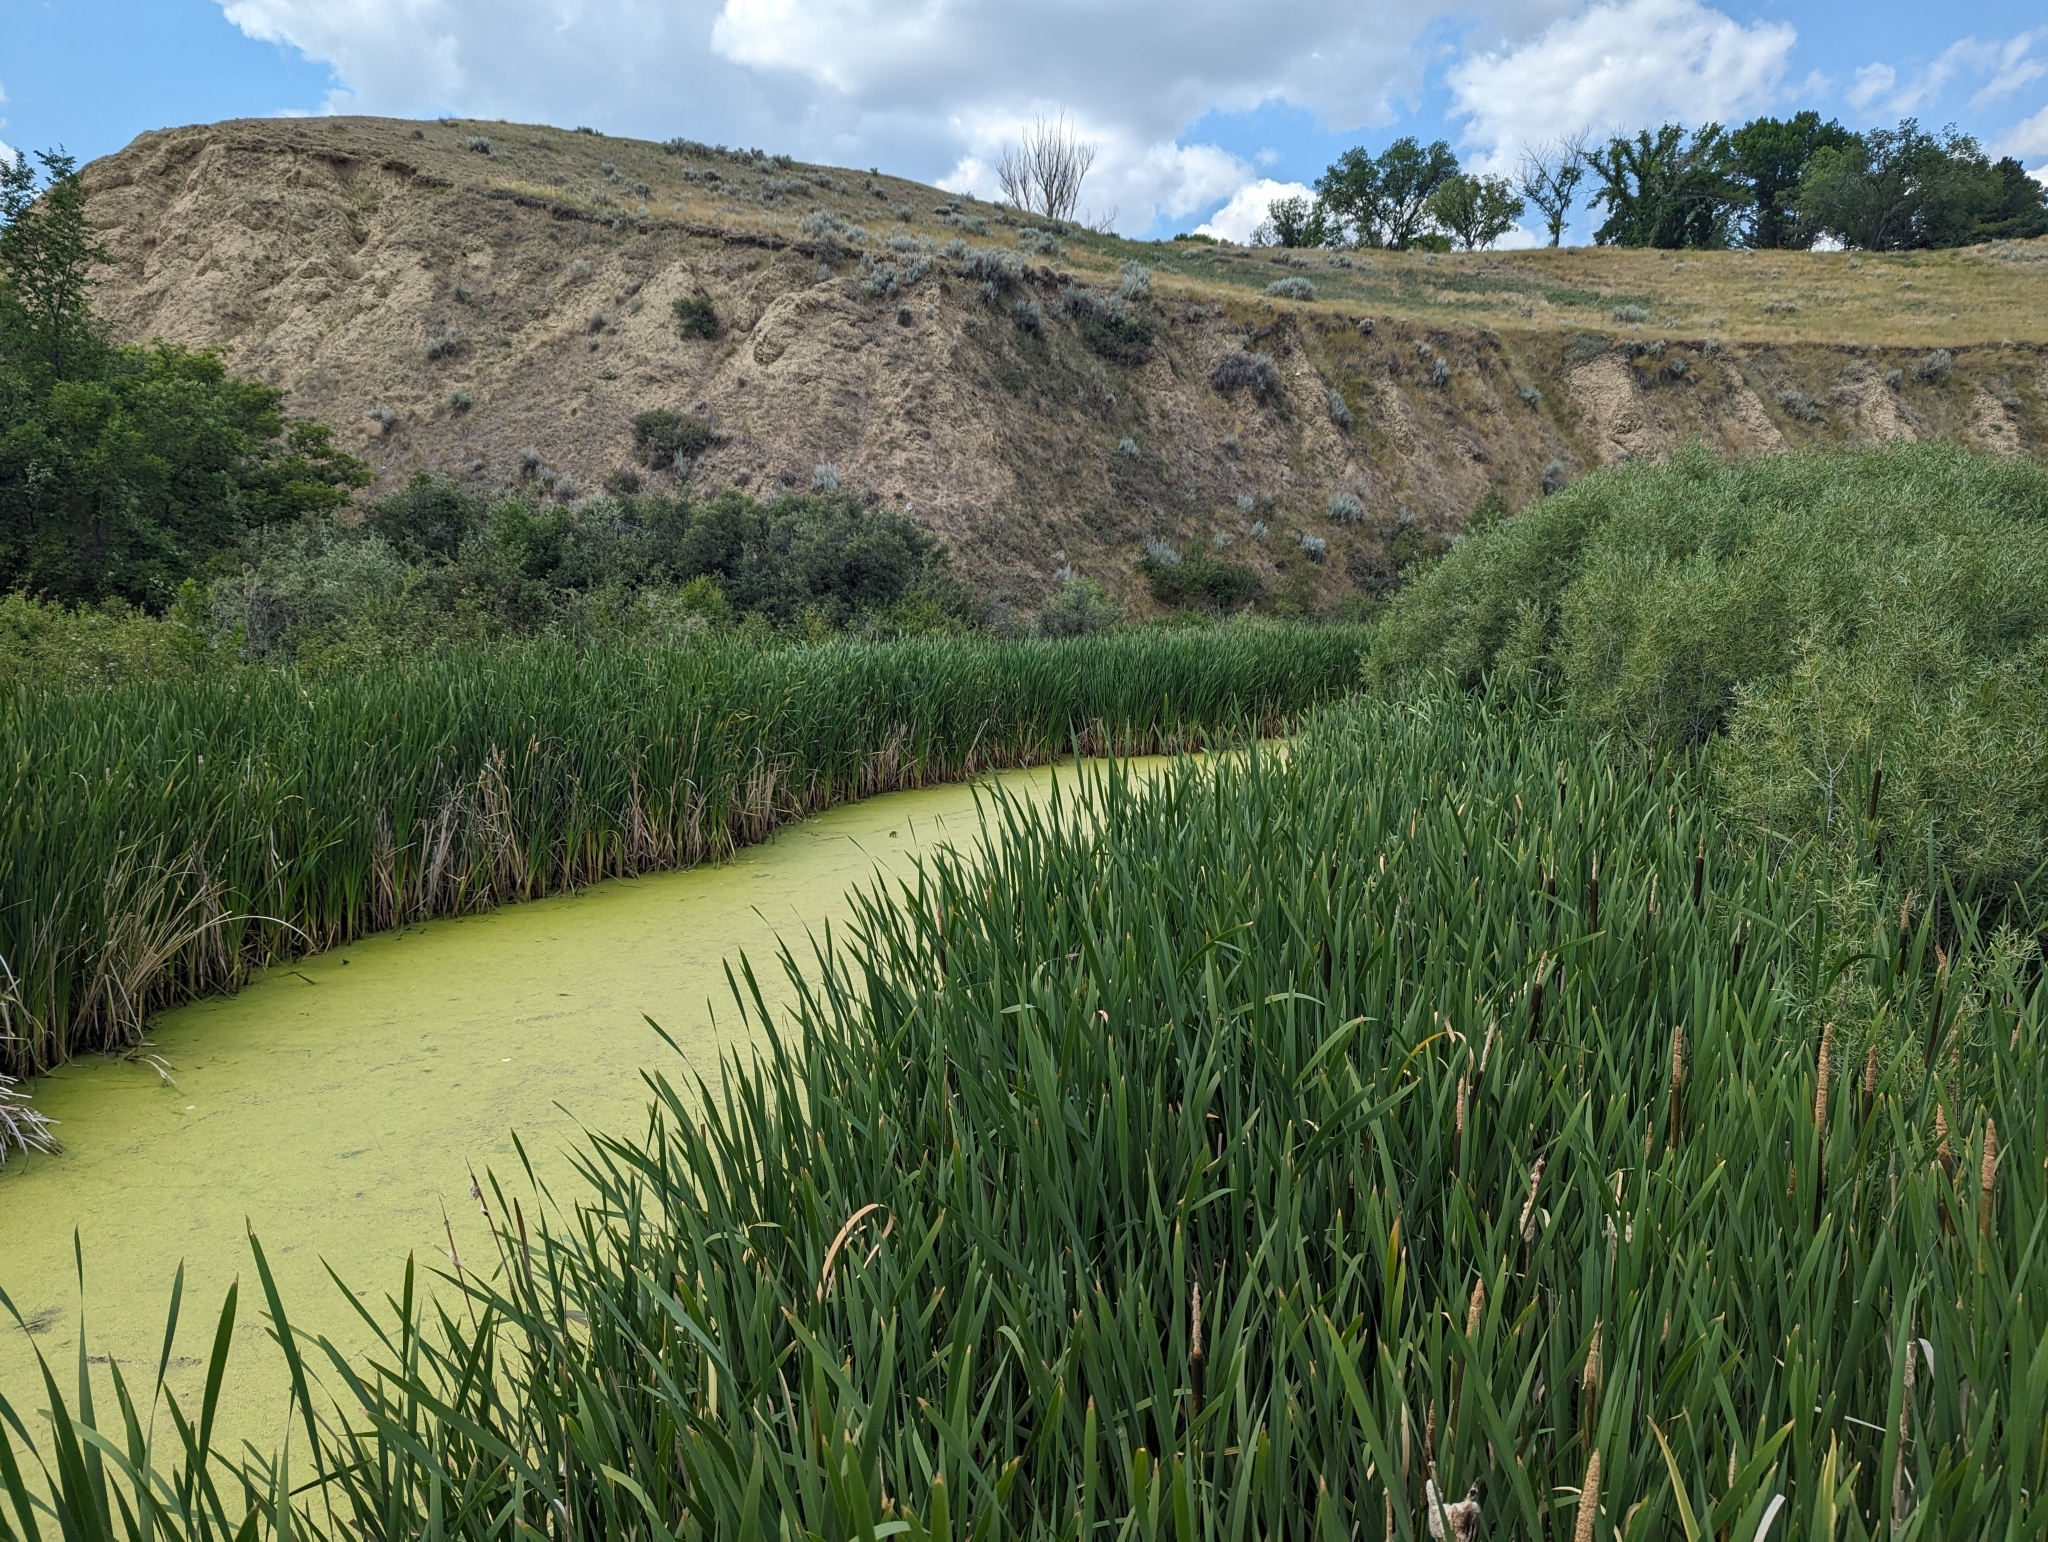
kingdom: Plantae
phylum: Tracheophyta
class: Liliopsida
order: Poales
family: Typhaceae
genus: Typha
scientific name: Typha latifolia
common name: Broadleaf cattail
